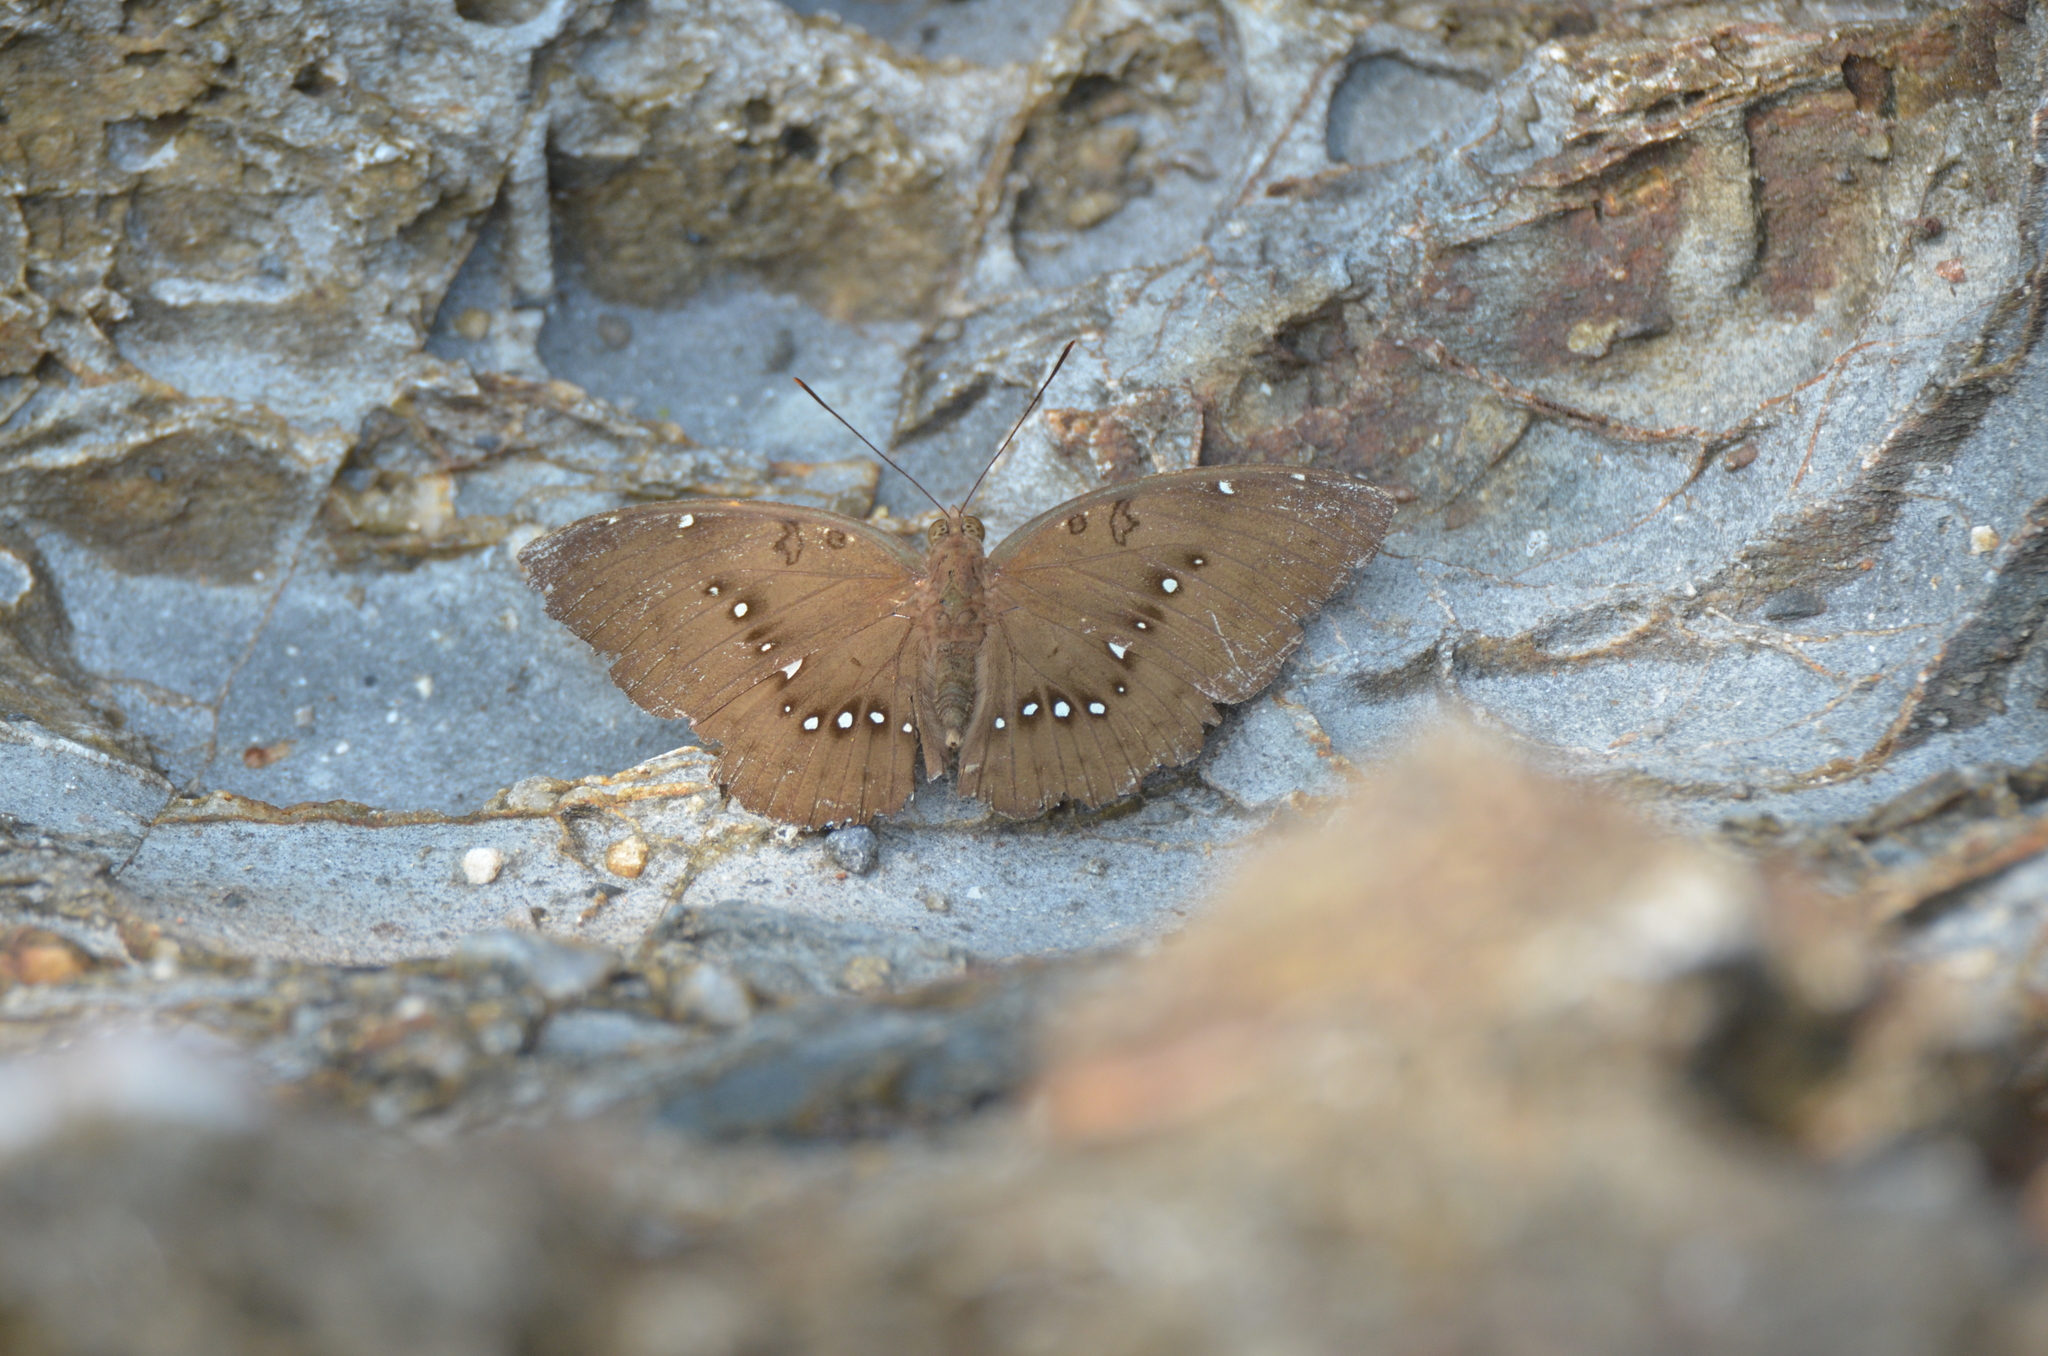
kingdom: Animalia
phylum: Arthropoda
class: Insecta
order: Lepidoptera
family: Nymphalidae
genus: Euthalia
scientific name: Euthalia Bassarona dunya
